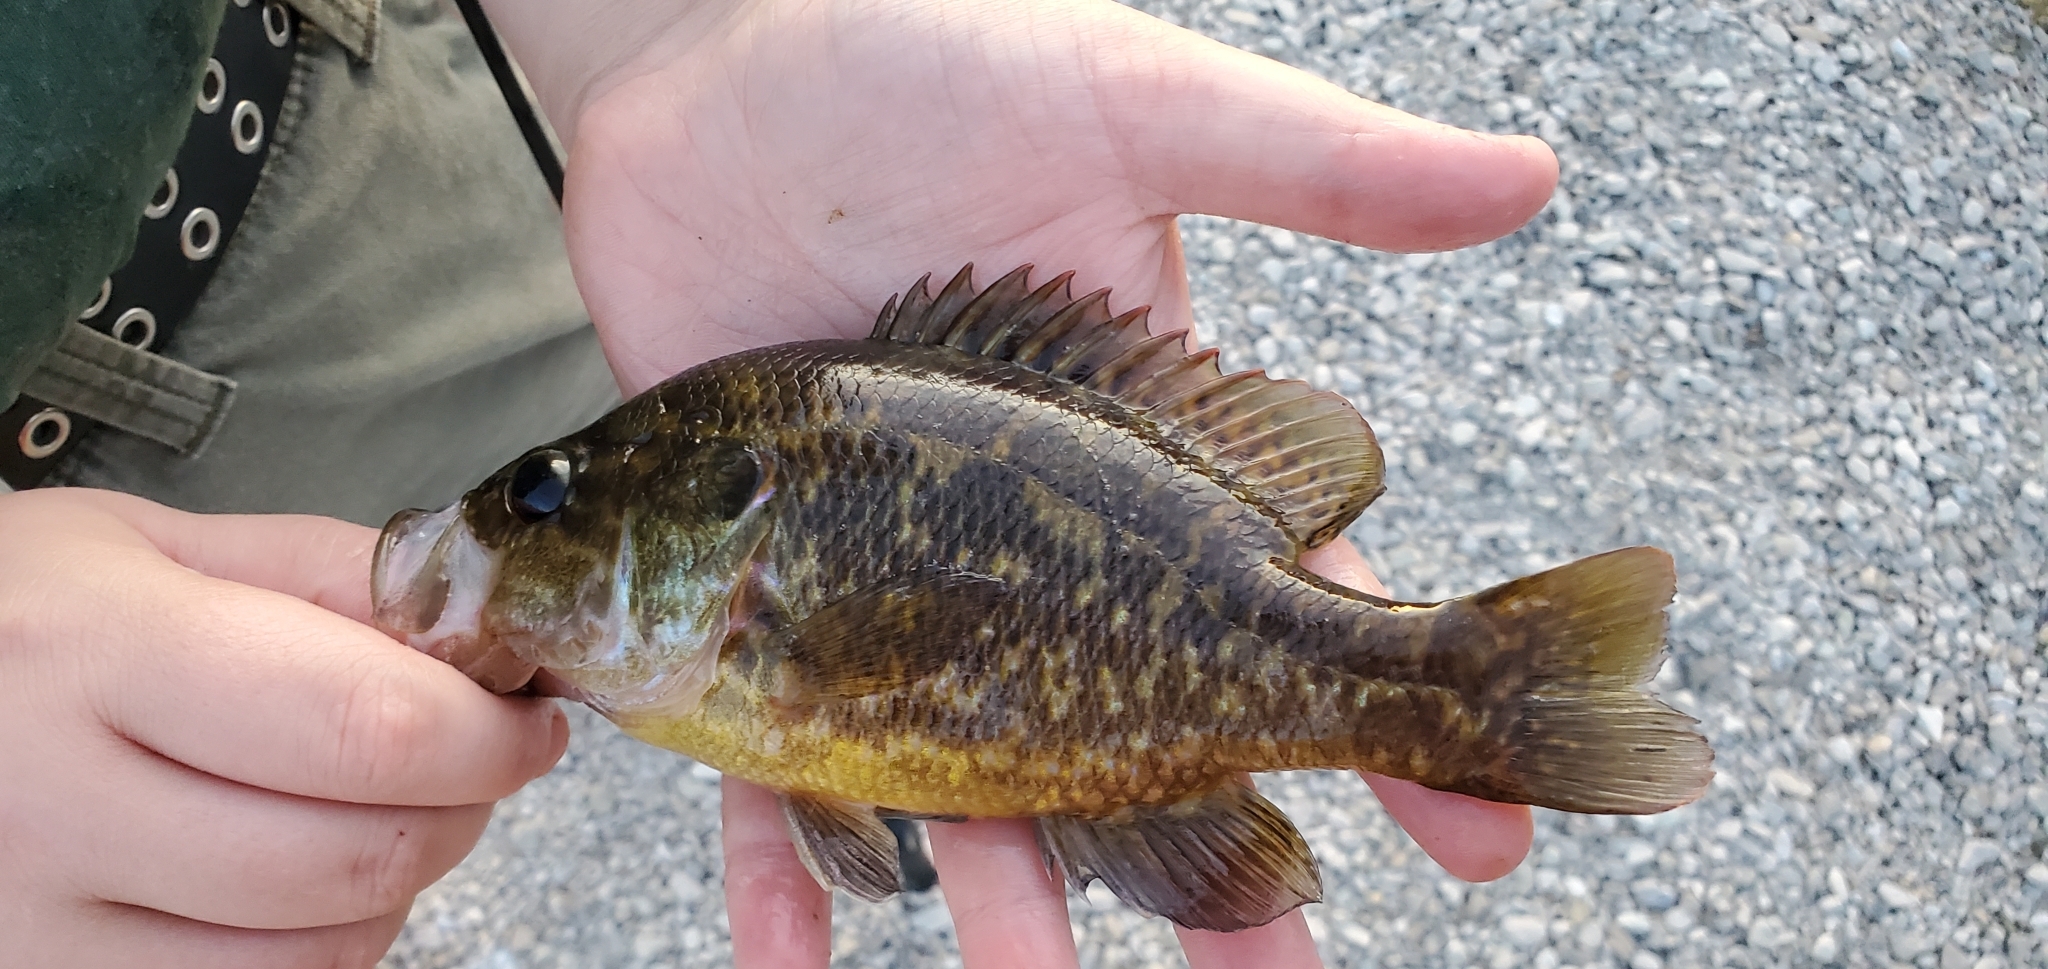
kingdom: Animalia
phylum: Chordata
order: Perciformes
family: Centrarchidae
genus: Lepomis
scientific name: Lepomis gulosus
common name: Warmouth
